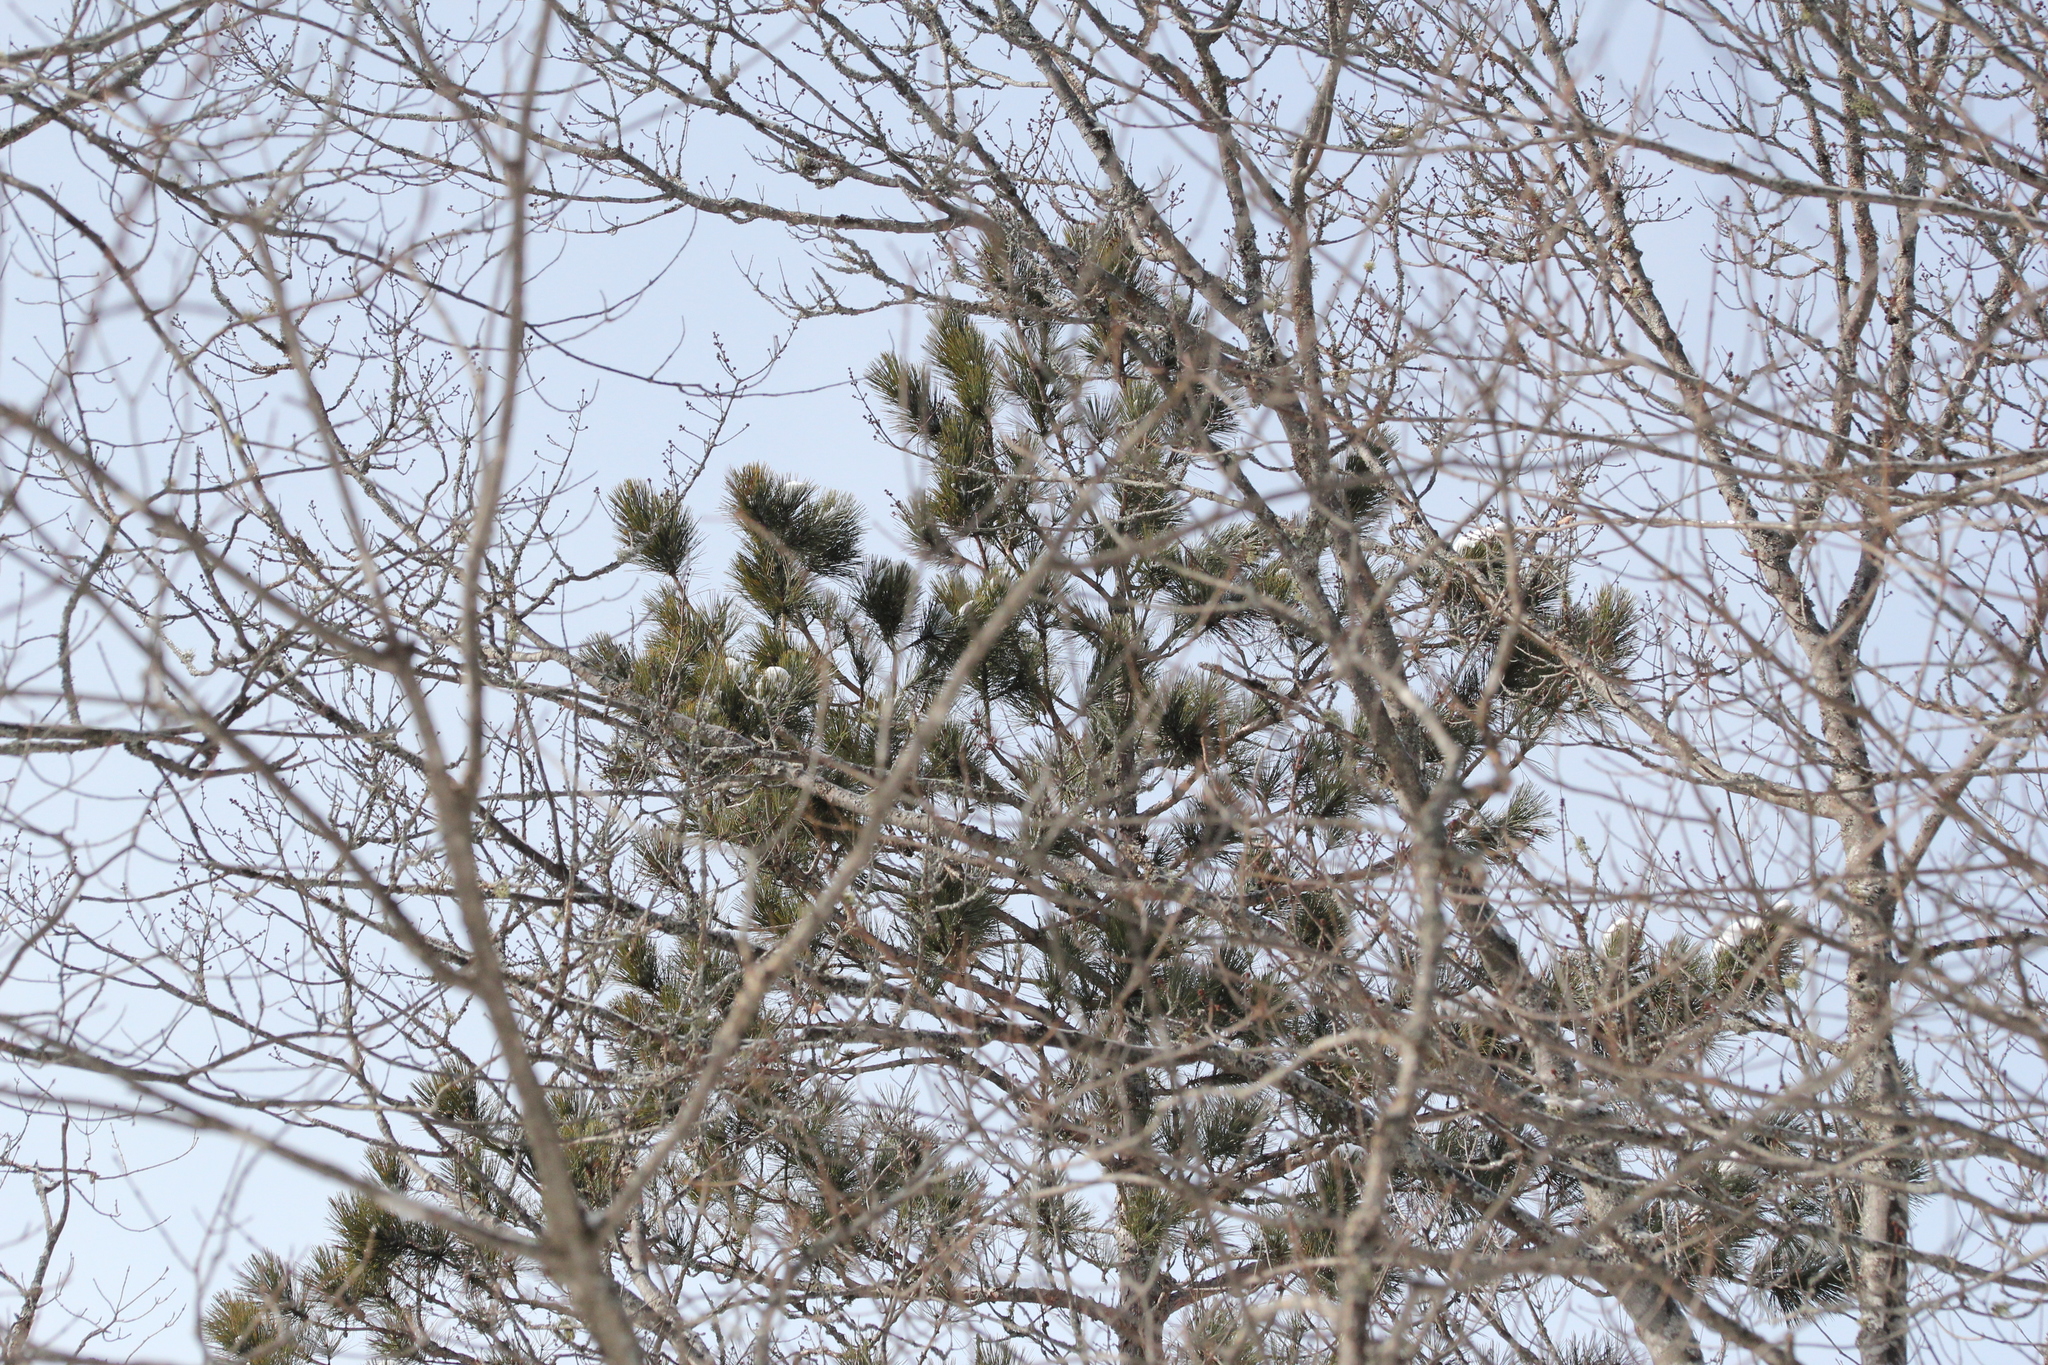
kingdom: Plantae
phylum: Tracheophyta
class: Pinopsida
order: Pinales
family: Pinaceae
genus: Pinus
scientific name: Pinus resinosa
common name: Norway pine
